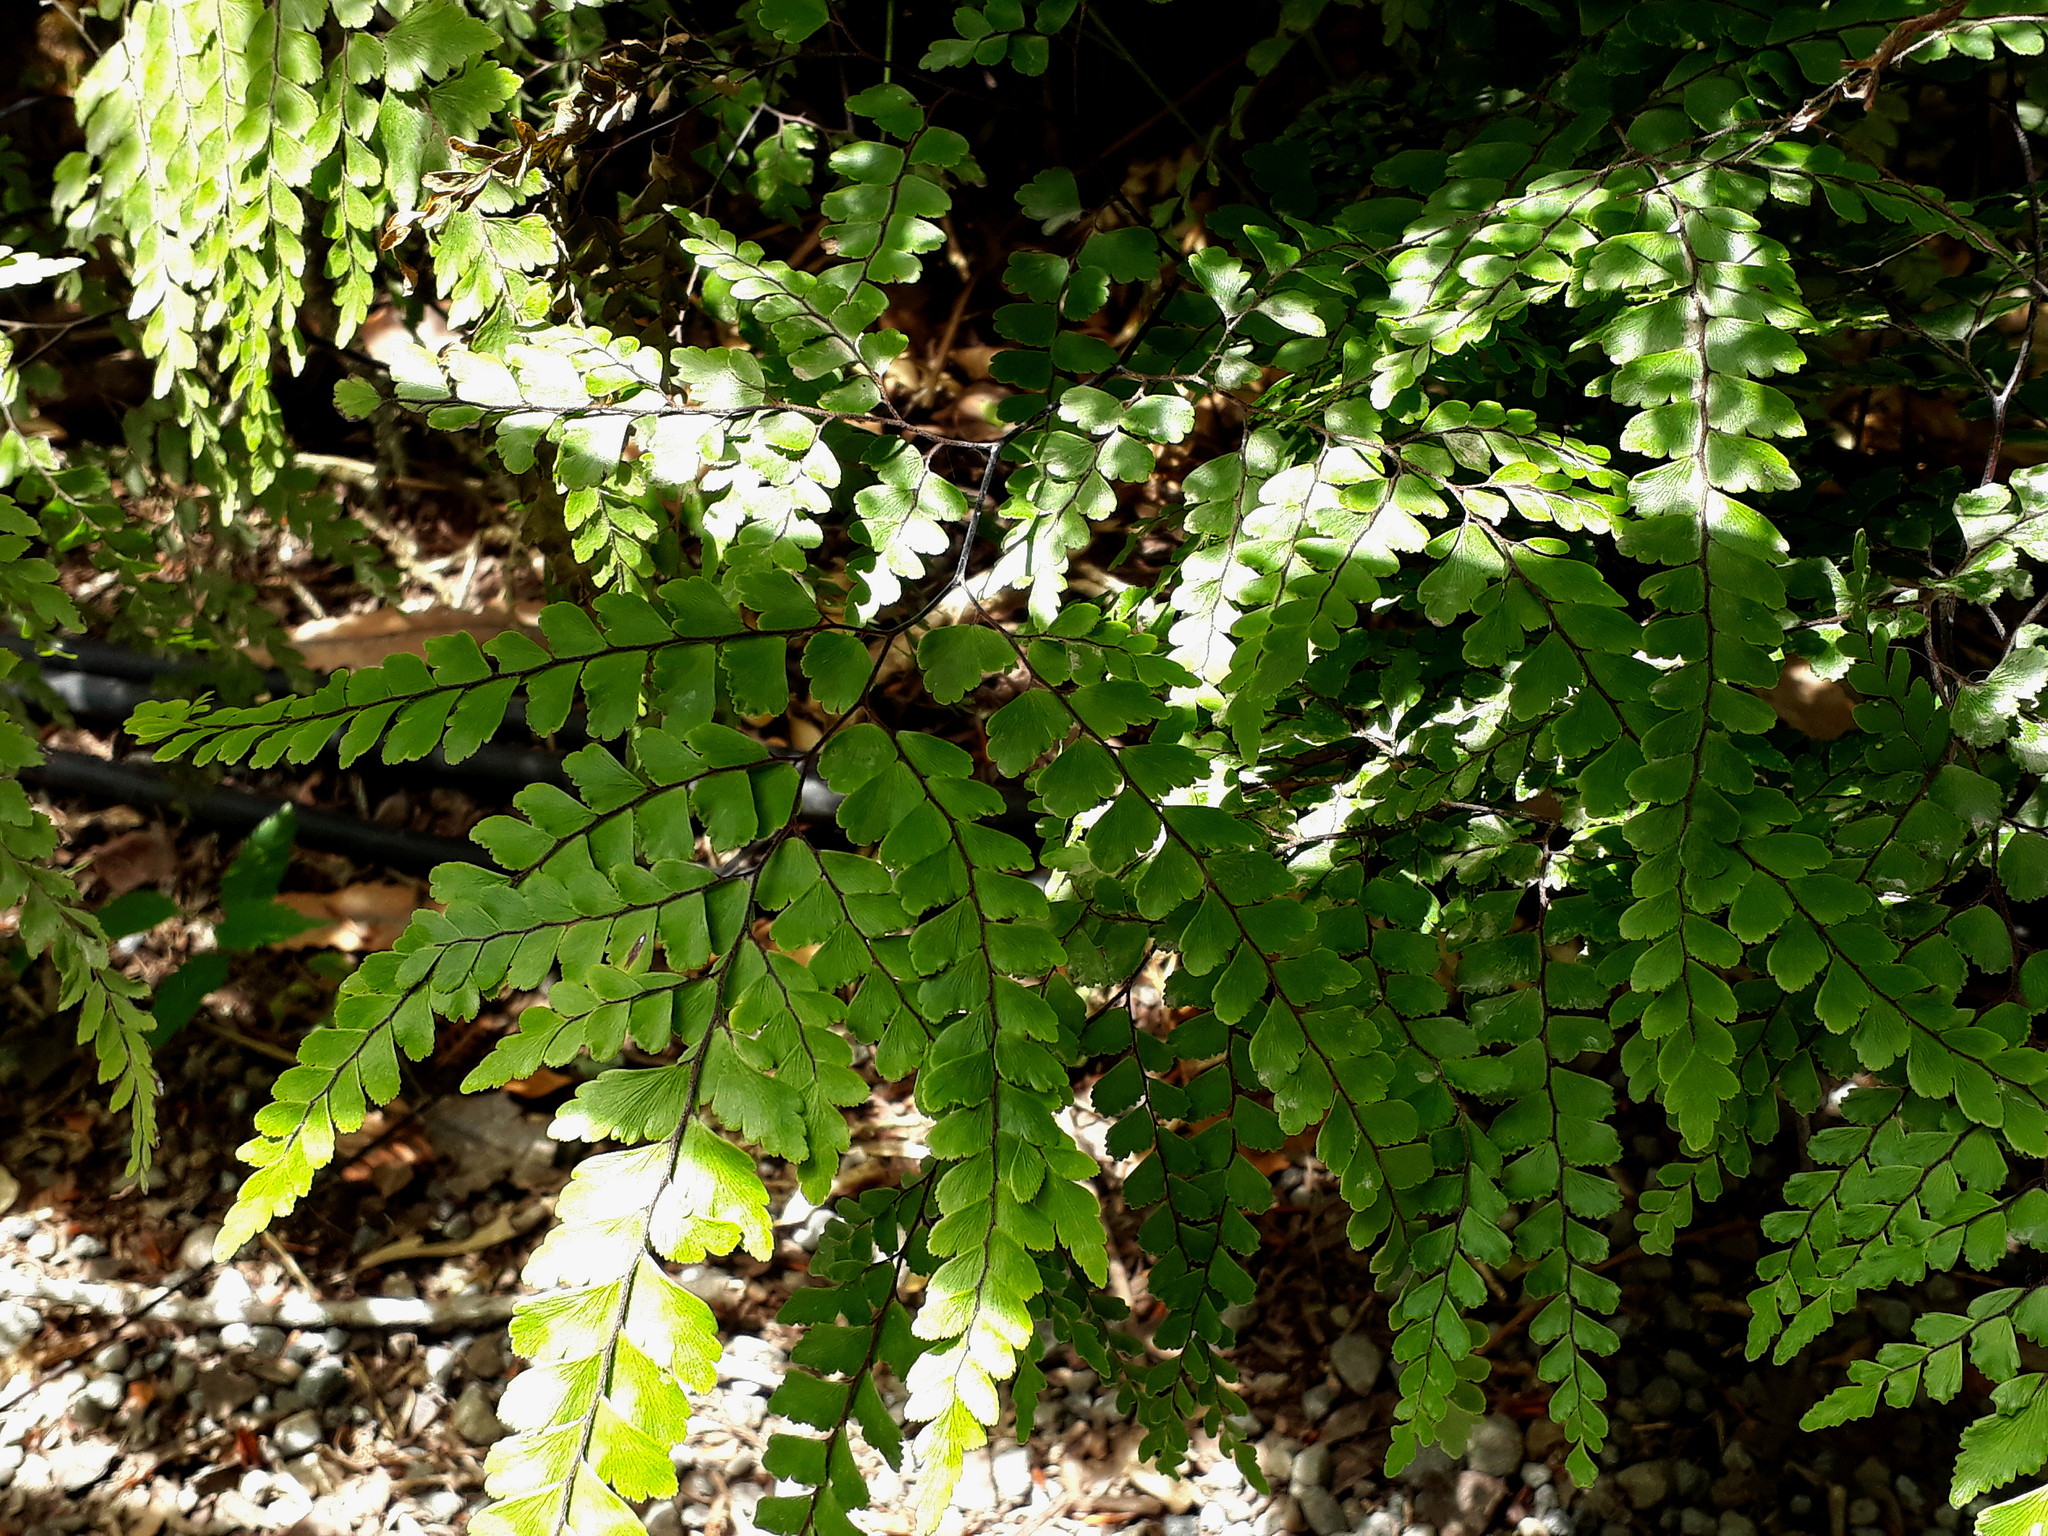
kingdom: Plantae
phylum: Tracheophyta
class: Polypodiopsida
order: Polypodiales
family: Pteridaceae
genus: Adiantum
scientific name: Adiantum formosum
